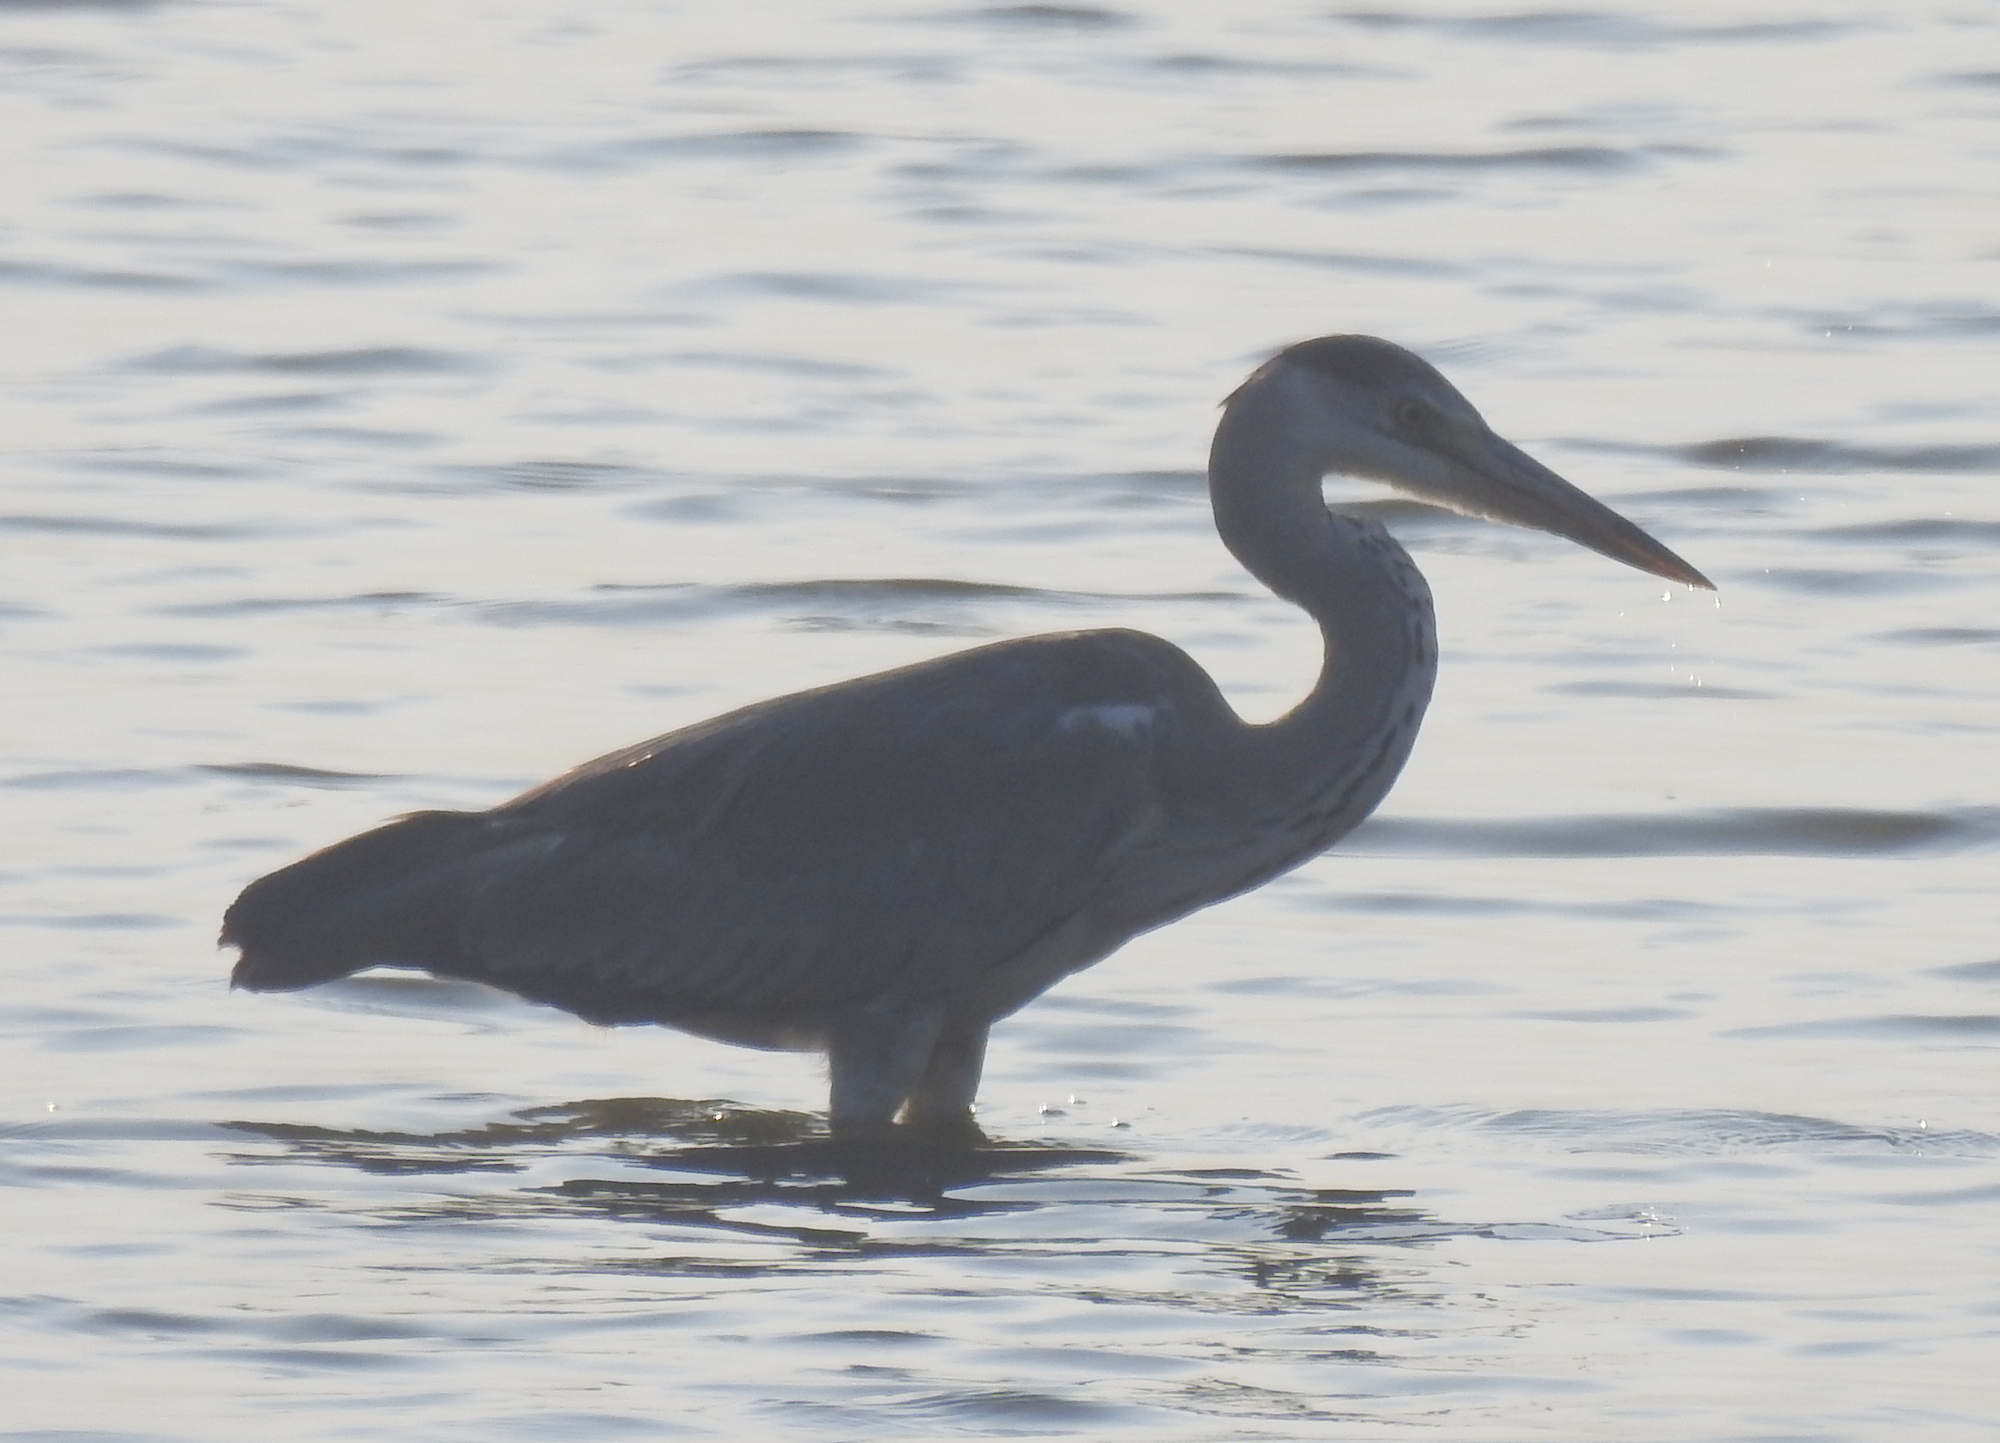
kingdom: Animalia
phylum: Chordata
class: Aves
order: Pelecaniformes
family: Ardeidae
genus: Ardea
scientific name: Ardea cinerea
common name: Grey heron
